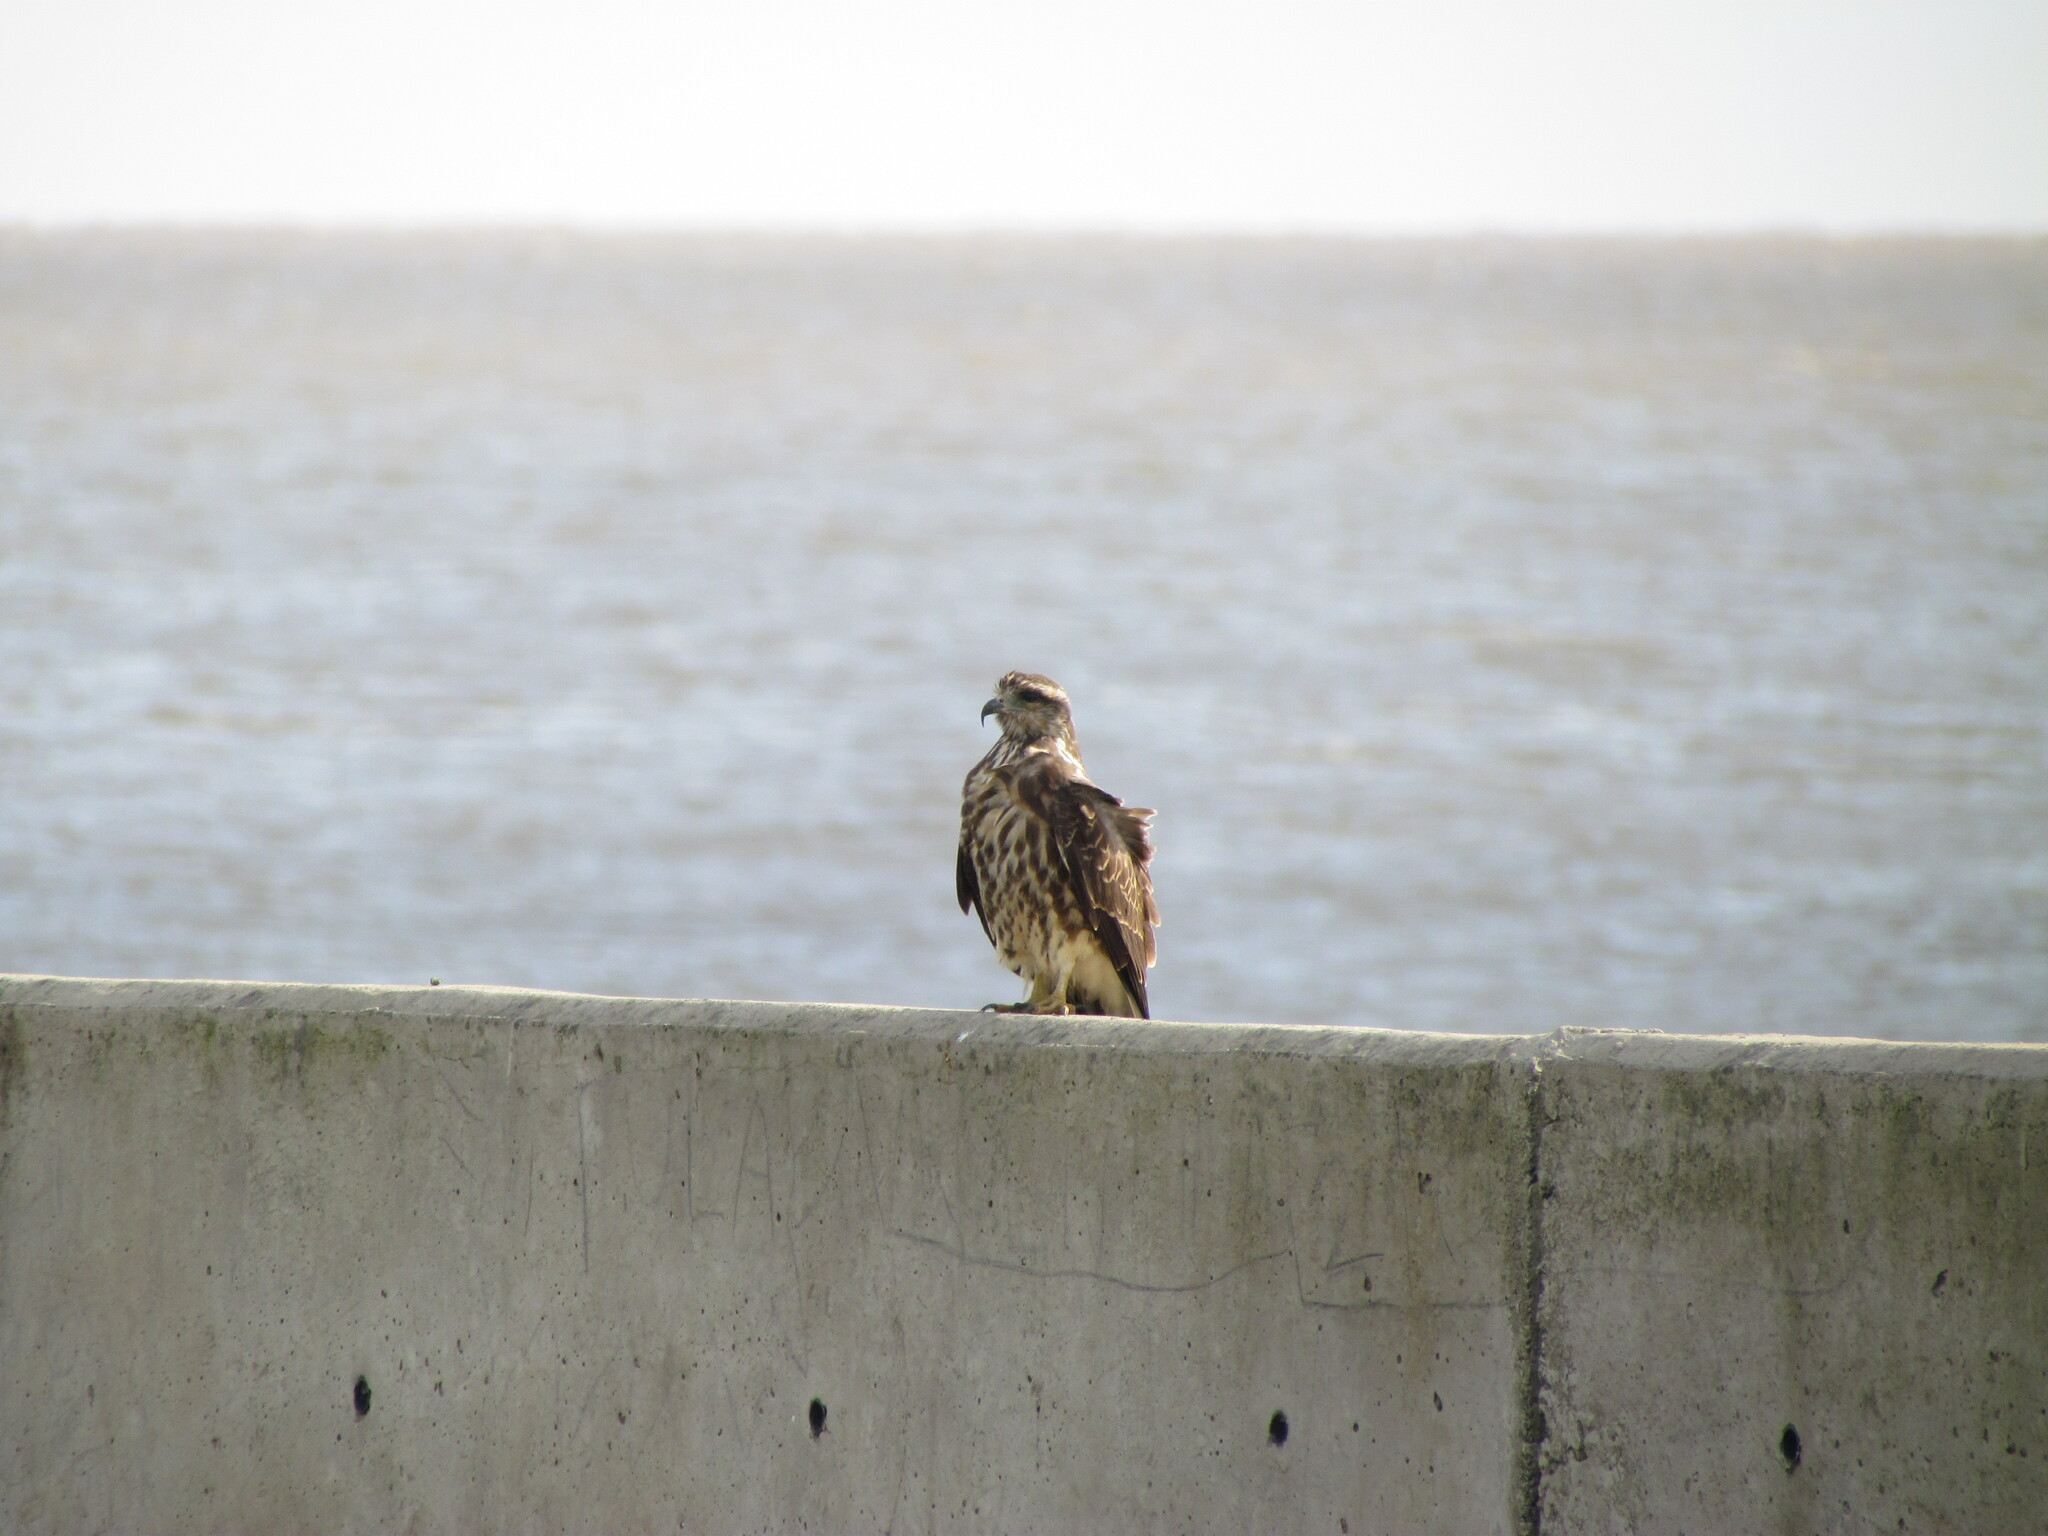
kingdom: Animalia
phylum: Chordata
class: Aves
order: Accipitriformes
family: Accipitridae
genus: Rostrhamus
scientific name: Rostrhamus sociabilis
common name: Snail kite
